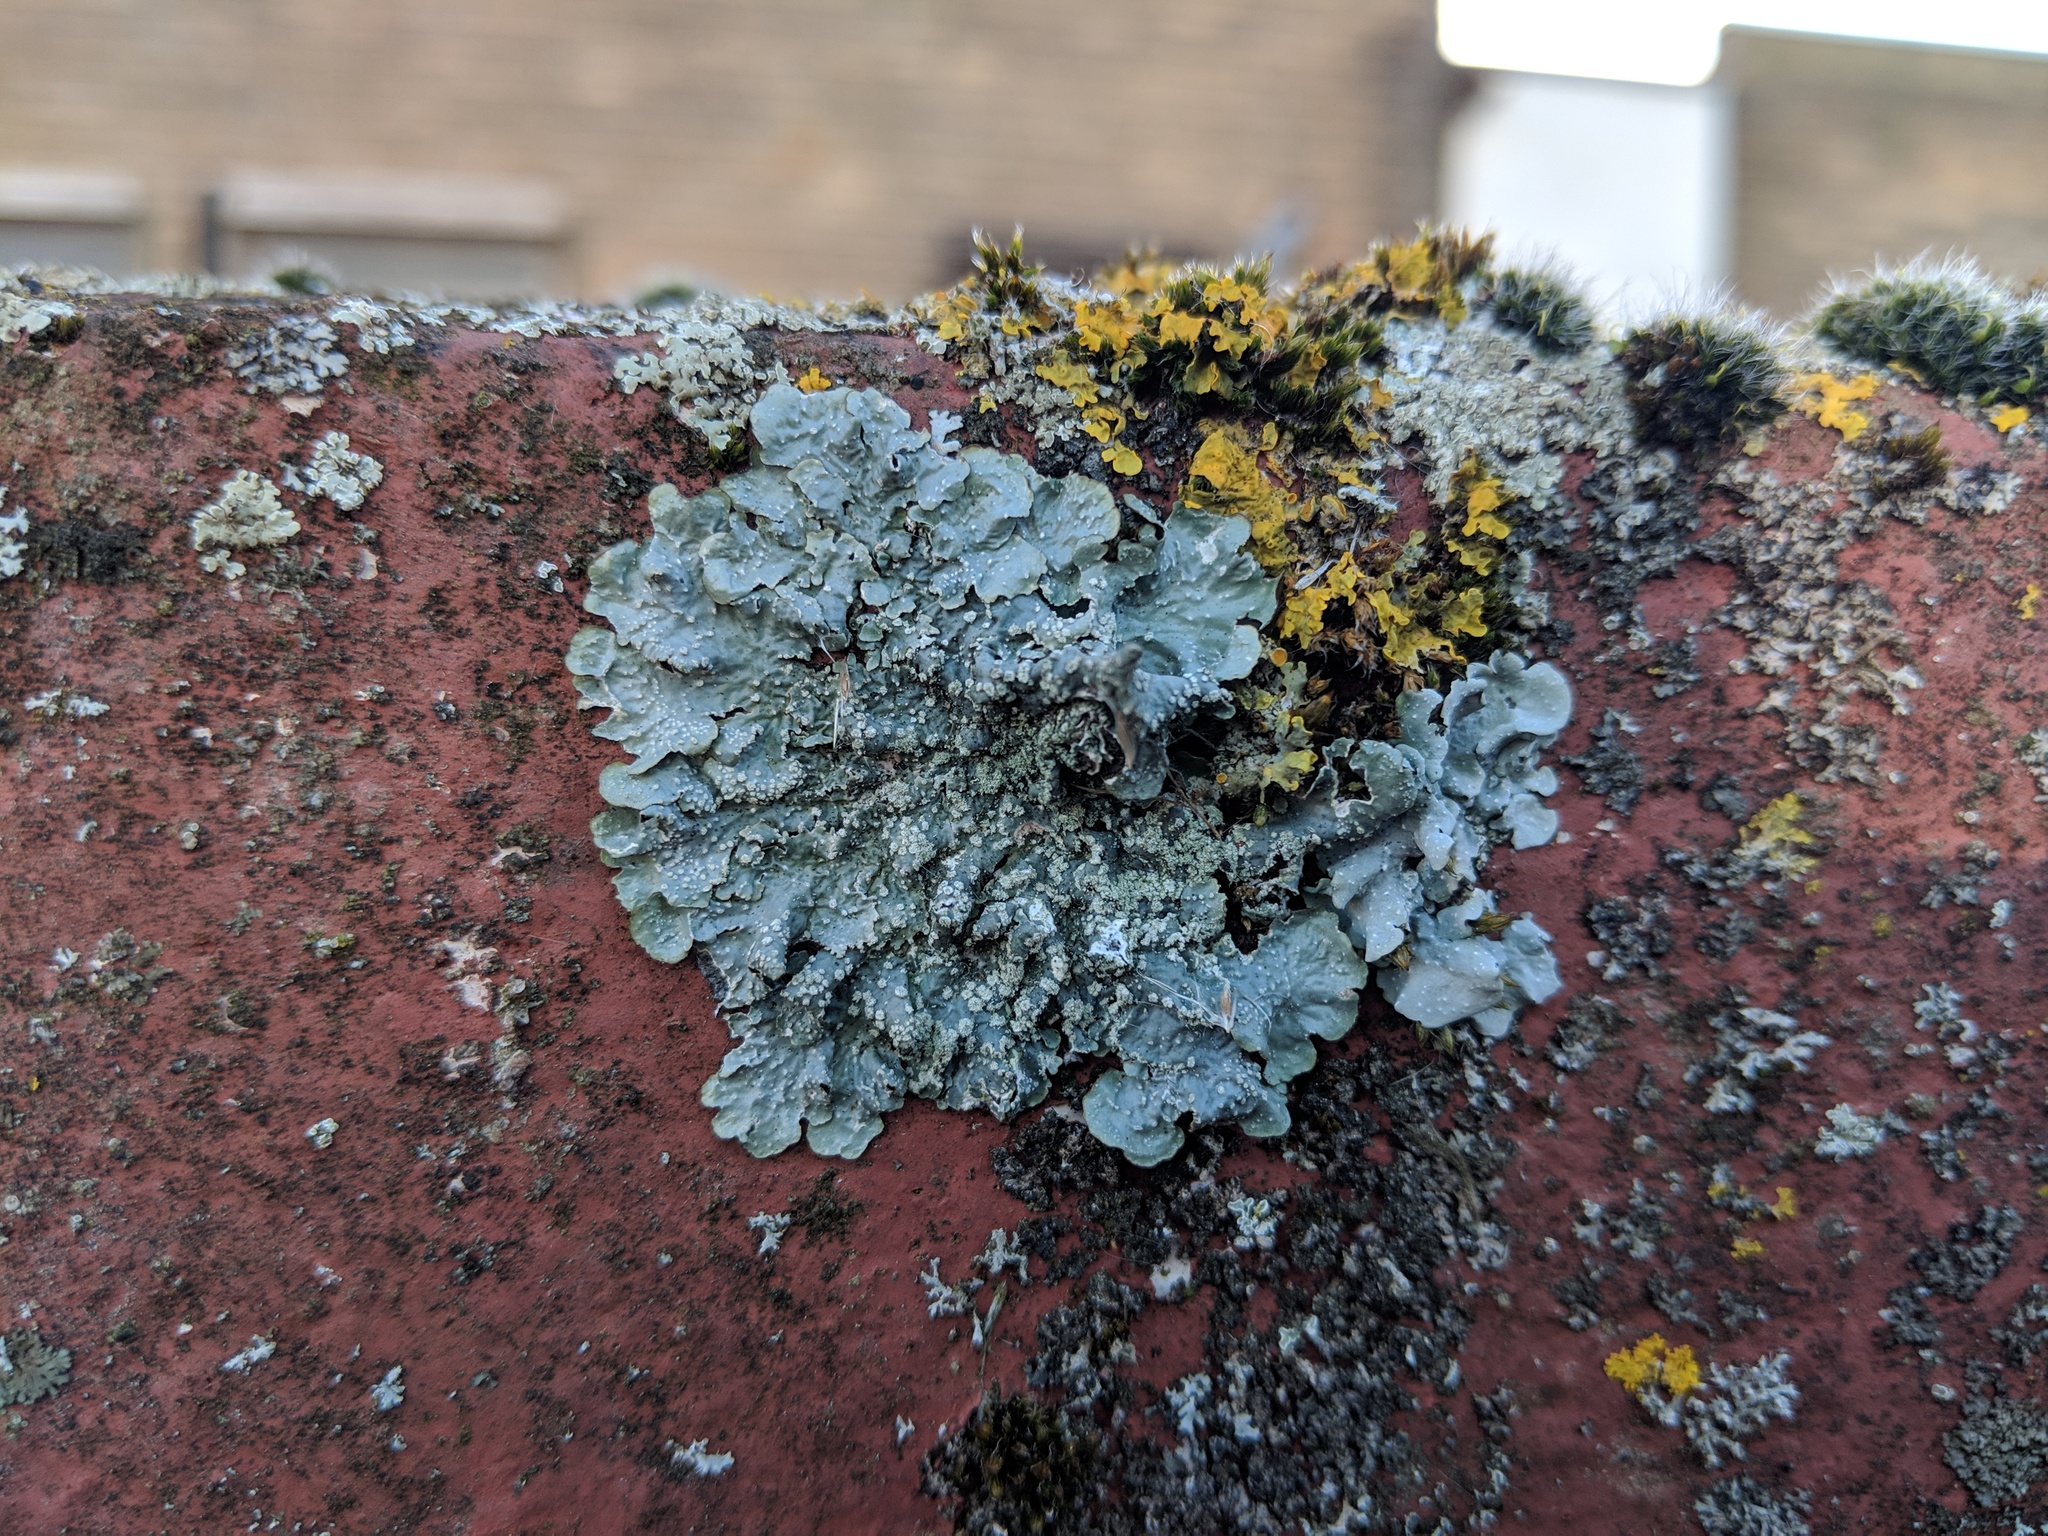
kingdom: Fungi
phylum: Ascomycota
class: Lecanoromycetes
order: Lecanorales
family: Parmeliaceae
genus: Punctelia
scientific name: Punctelia subrudecta
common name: Powdered speckled shield lichen
